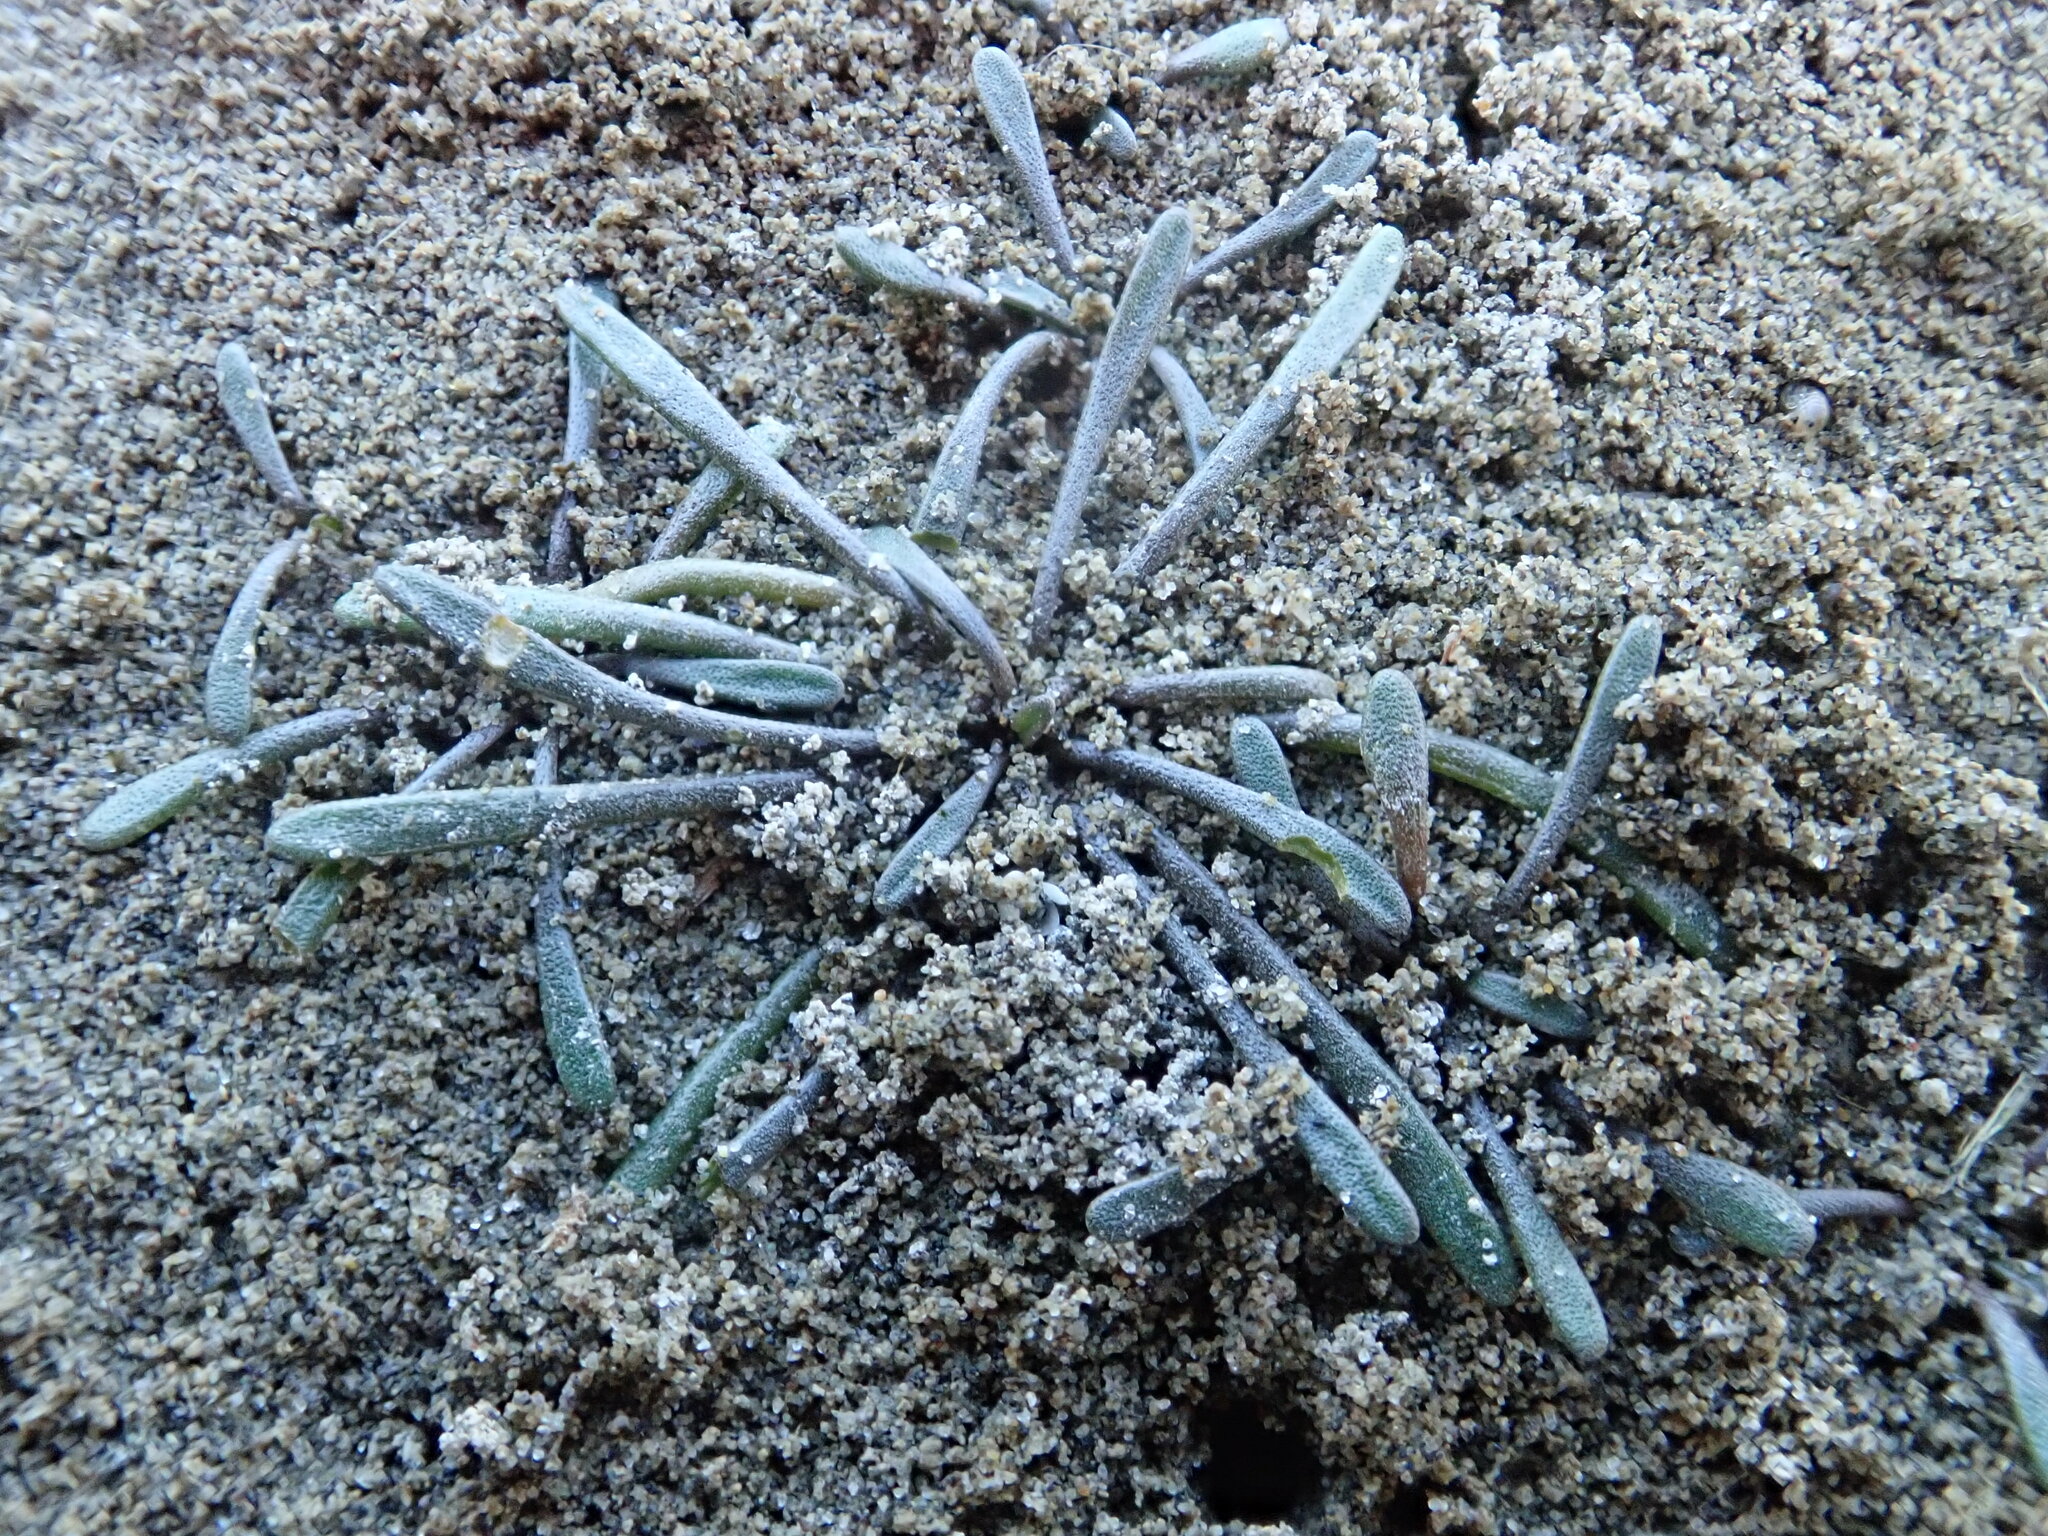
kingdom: Plantae
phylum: Tracheophyta
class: Magnoliopsida
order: Lamiales
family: Scrophulariaceae
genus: Limosella
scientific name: Limosella australis
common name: Welsh mudwort
